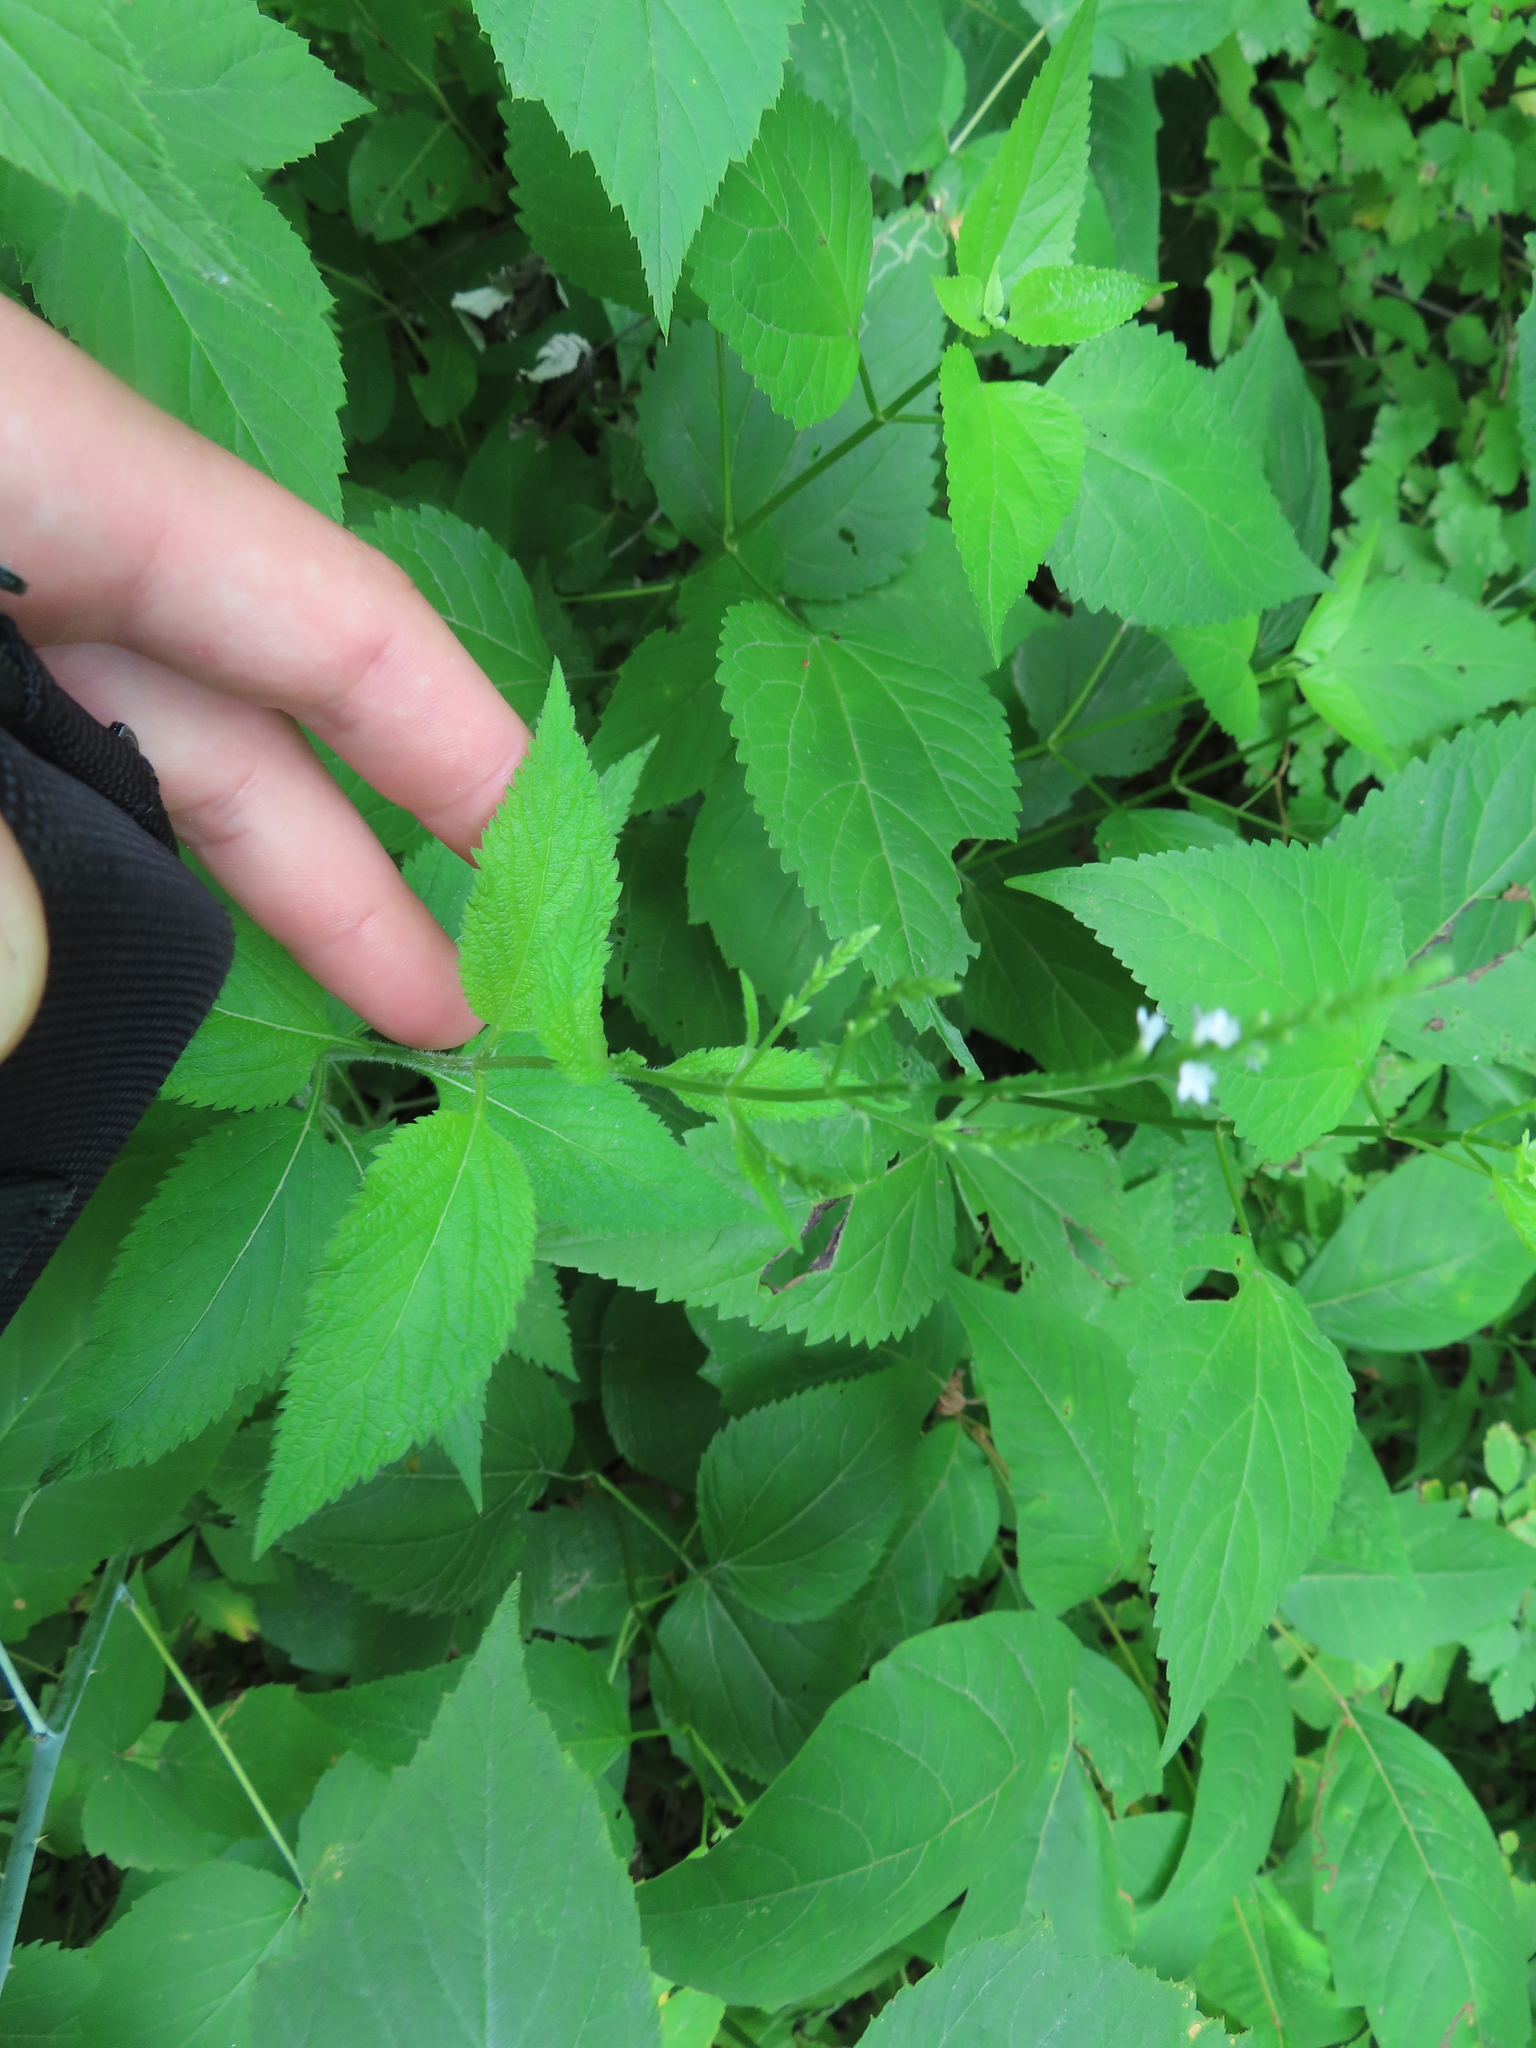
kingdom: Plantae
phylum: Tracheophyta
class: Magnoliopsida
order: Lamiales
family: Verbenaceae
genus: Verbena
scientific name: Verbena urticifolia
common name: Nettle-leaved vervain
